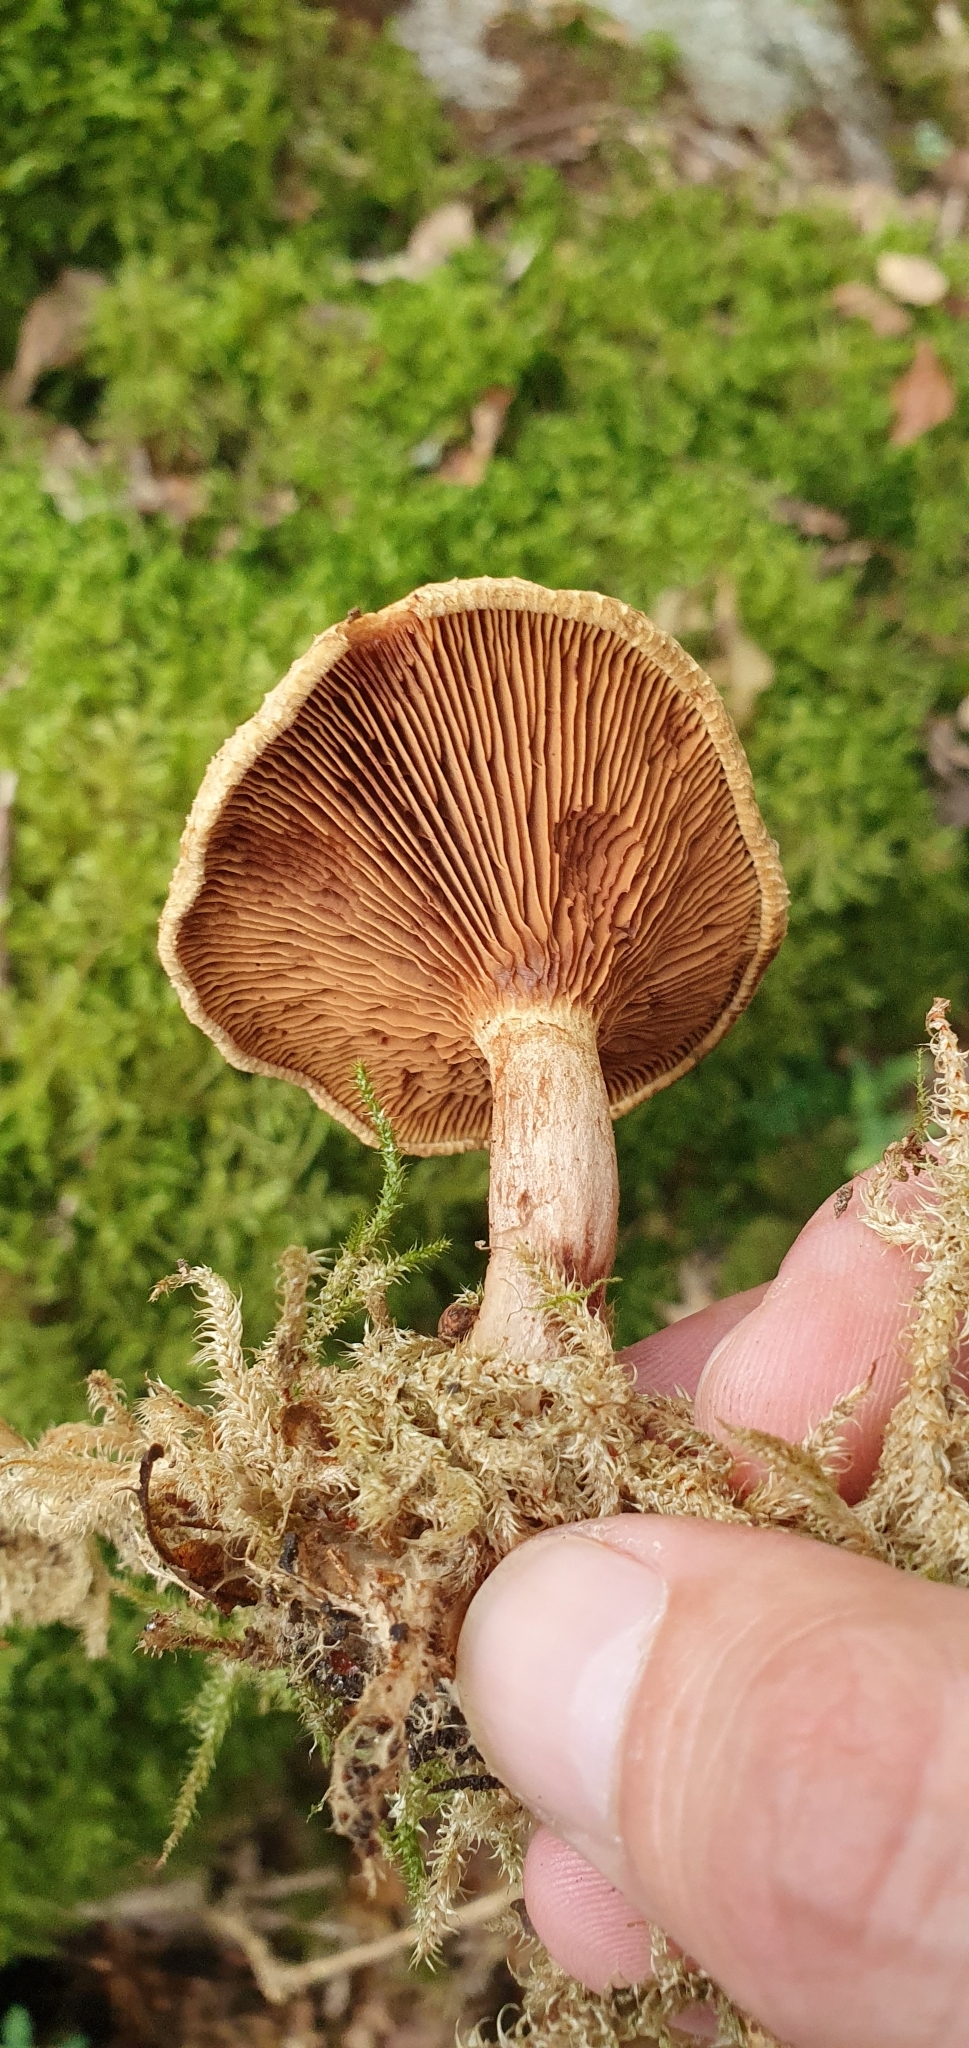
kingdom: Fungi
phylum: Basidiomycota
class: Agaricomycetes
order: Boletales
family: Paxillaceae
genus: Paxillus
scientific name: Paxillus involutus
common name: Brown roll rim
